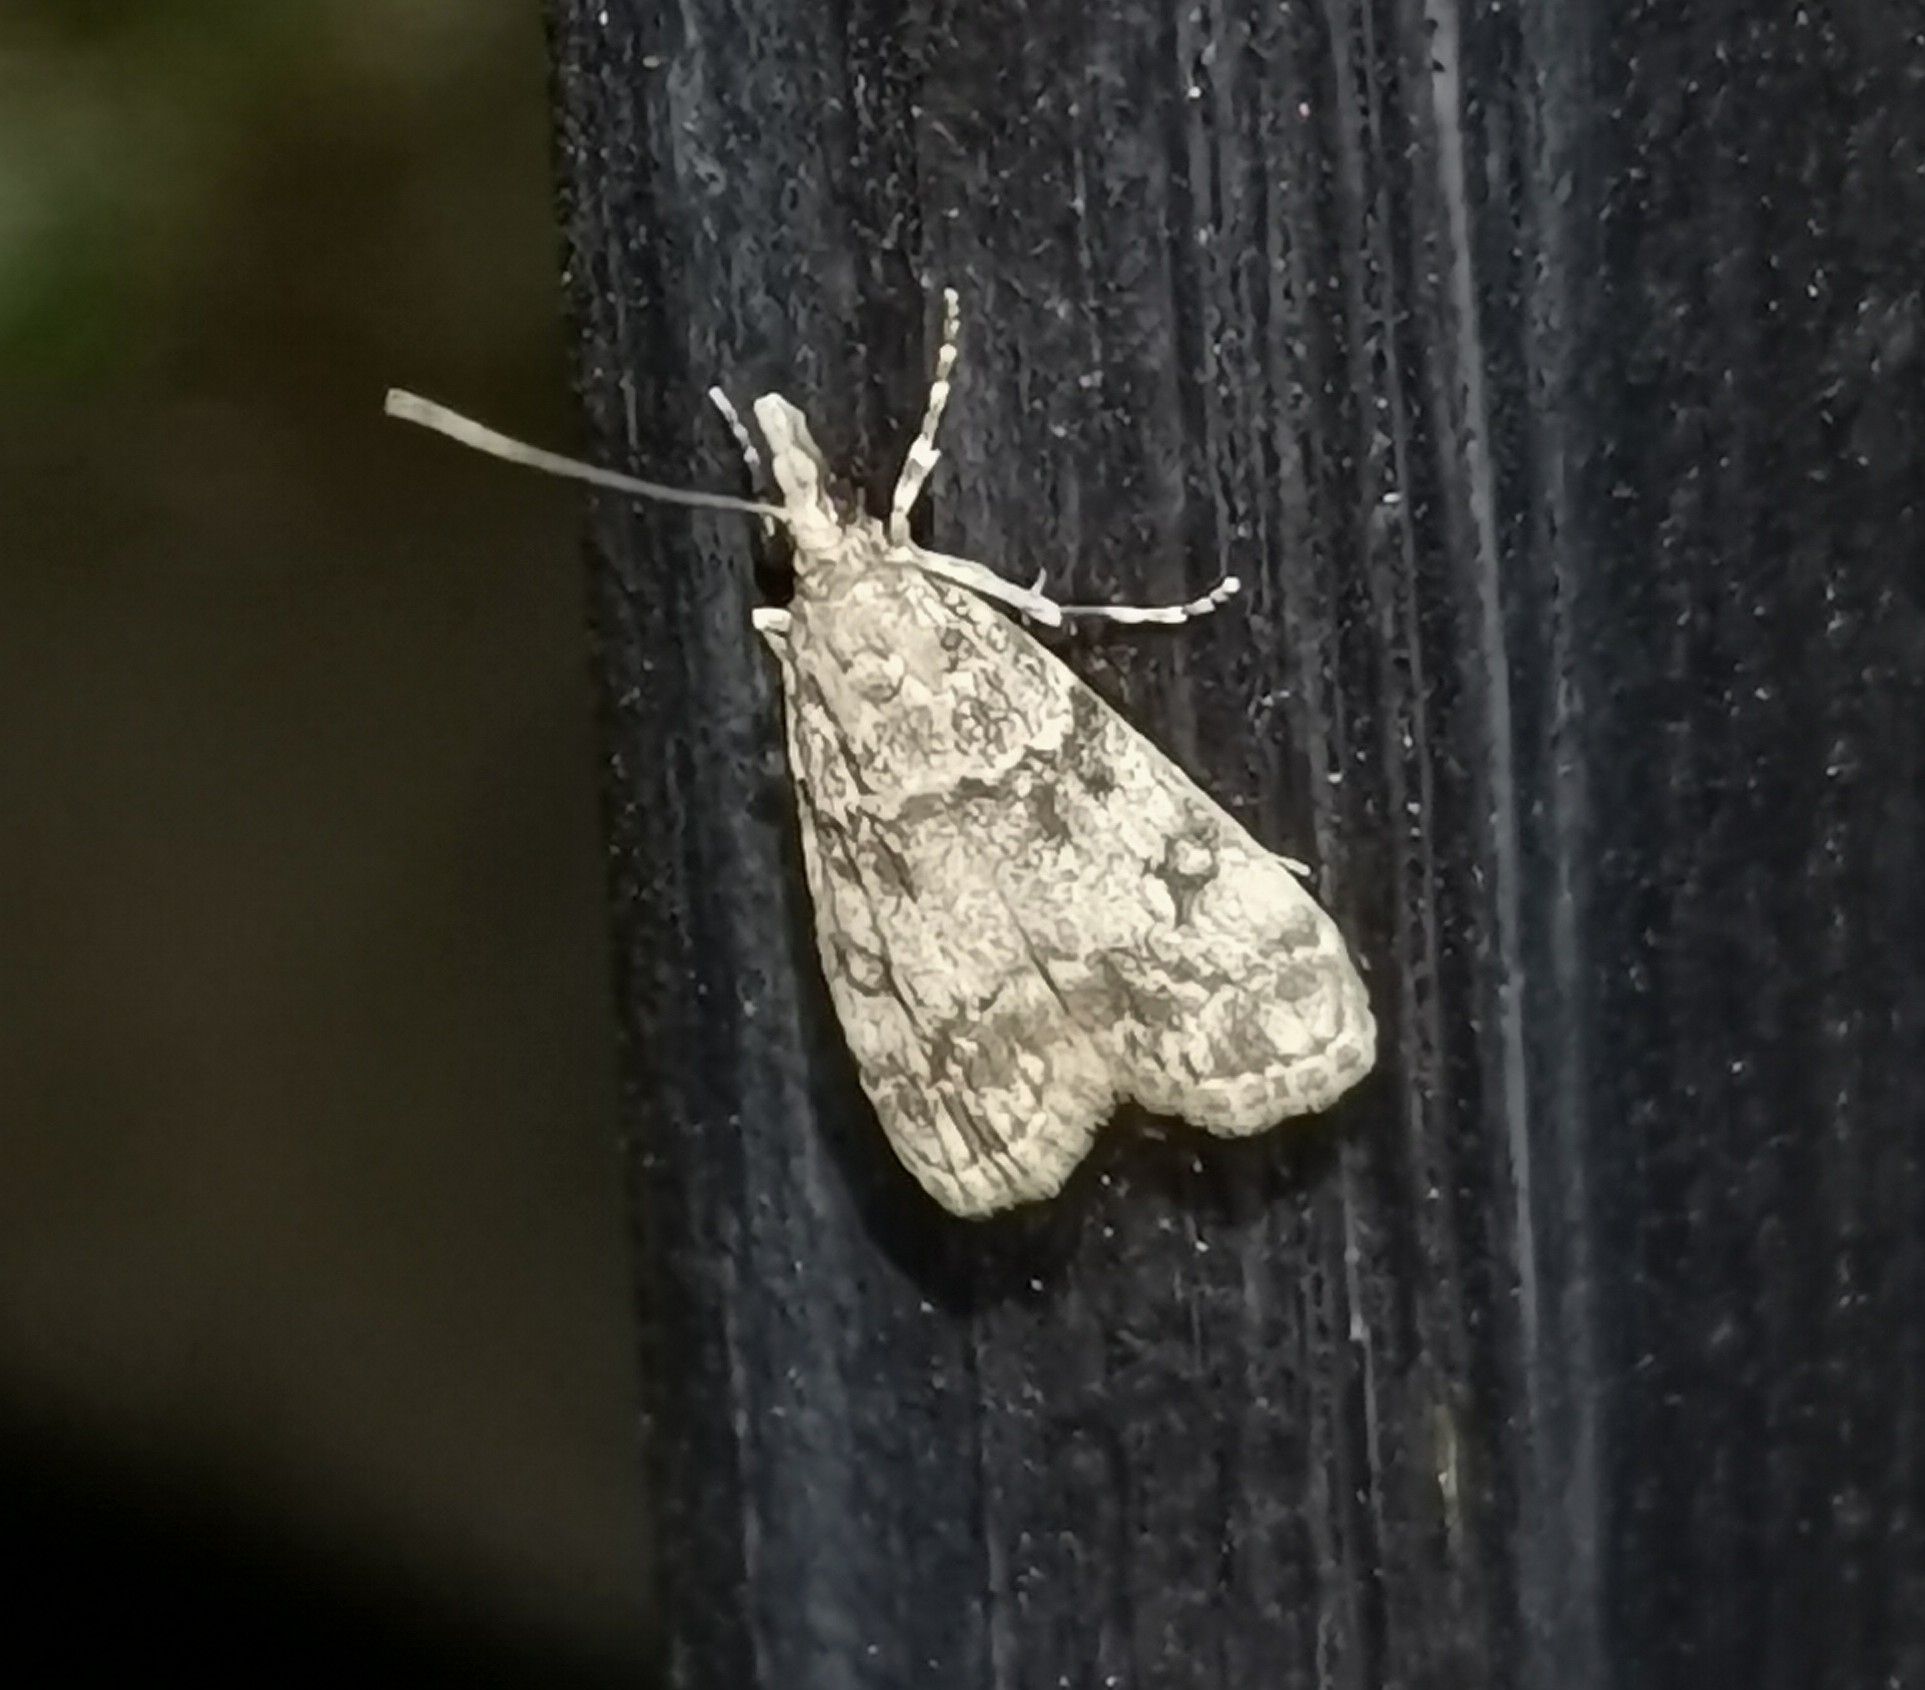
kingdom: Animalia
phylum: Arthropoda
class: Insecta
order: Lepidoptera
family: Crambidae
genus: Eudonia
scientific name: Eudonia lacustrata
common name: Little grey
